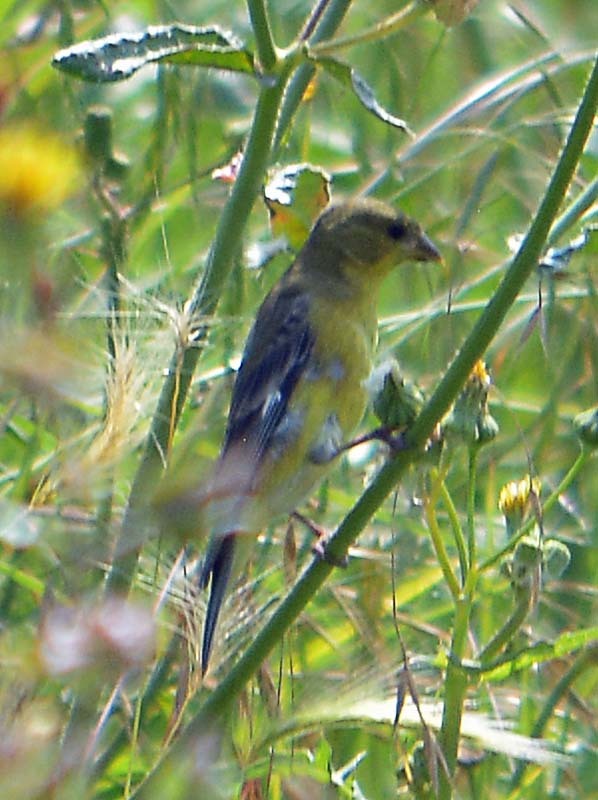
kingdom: Animalia
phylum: Chordata
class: Aves
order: Passeriformes
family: Fringillidae
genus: Spinus
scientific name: Spinus psaltria
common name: Lesser goldfinch
